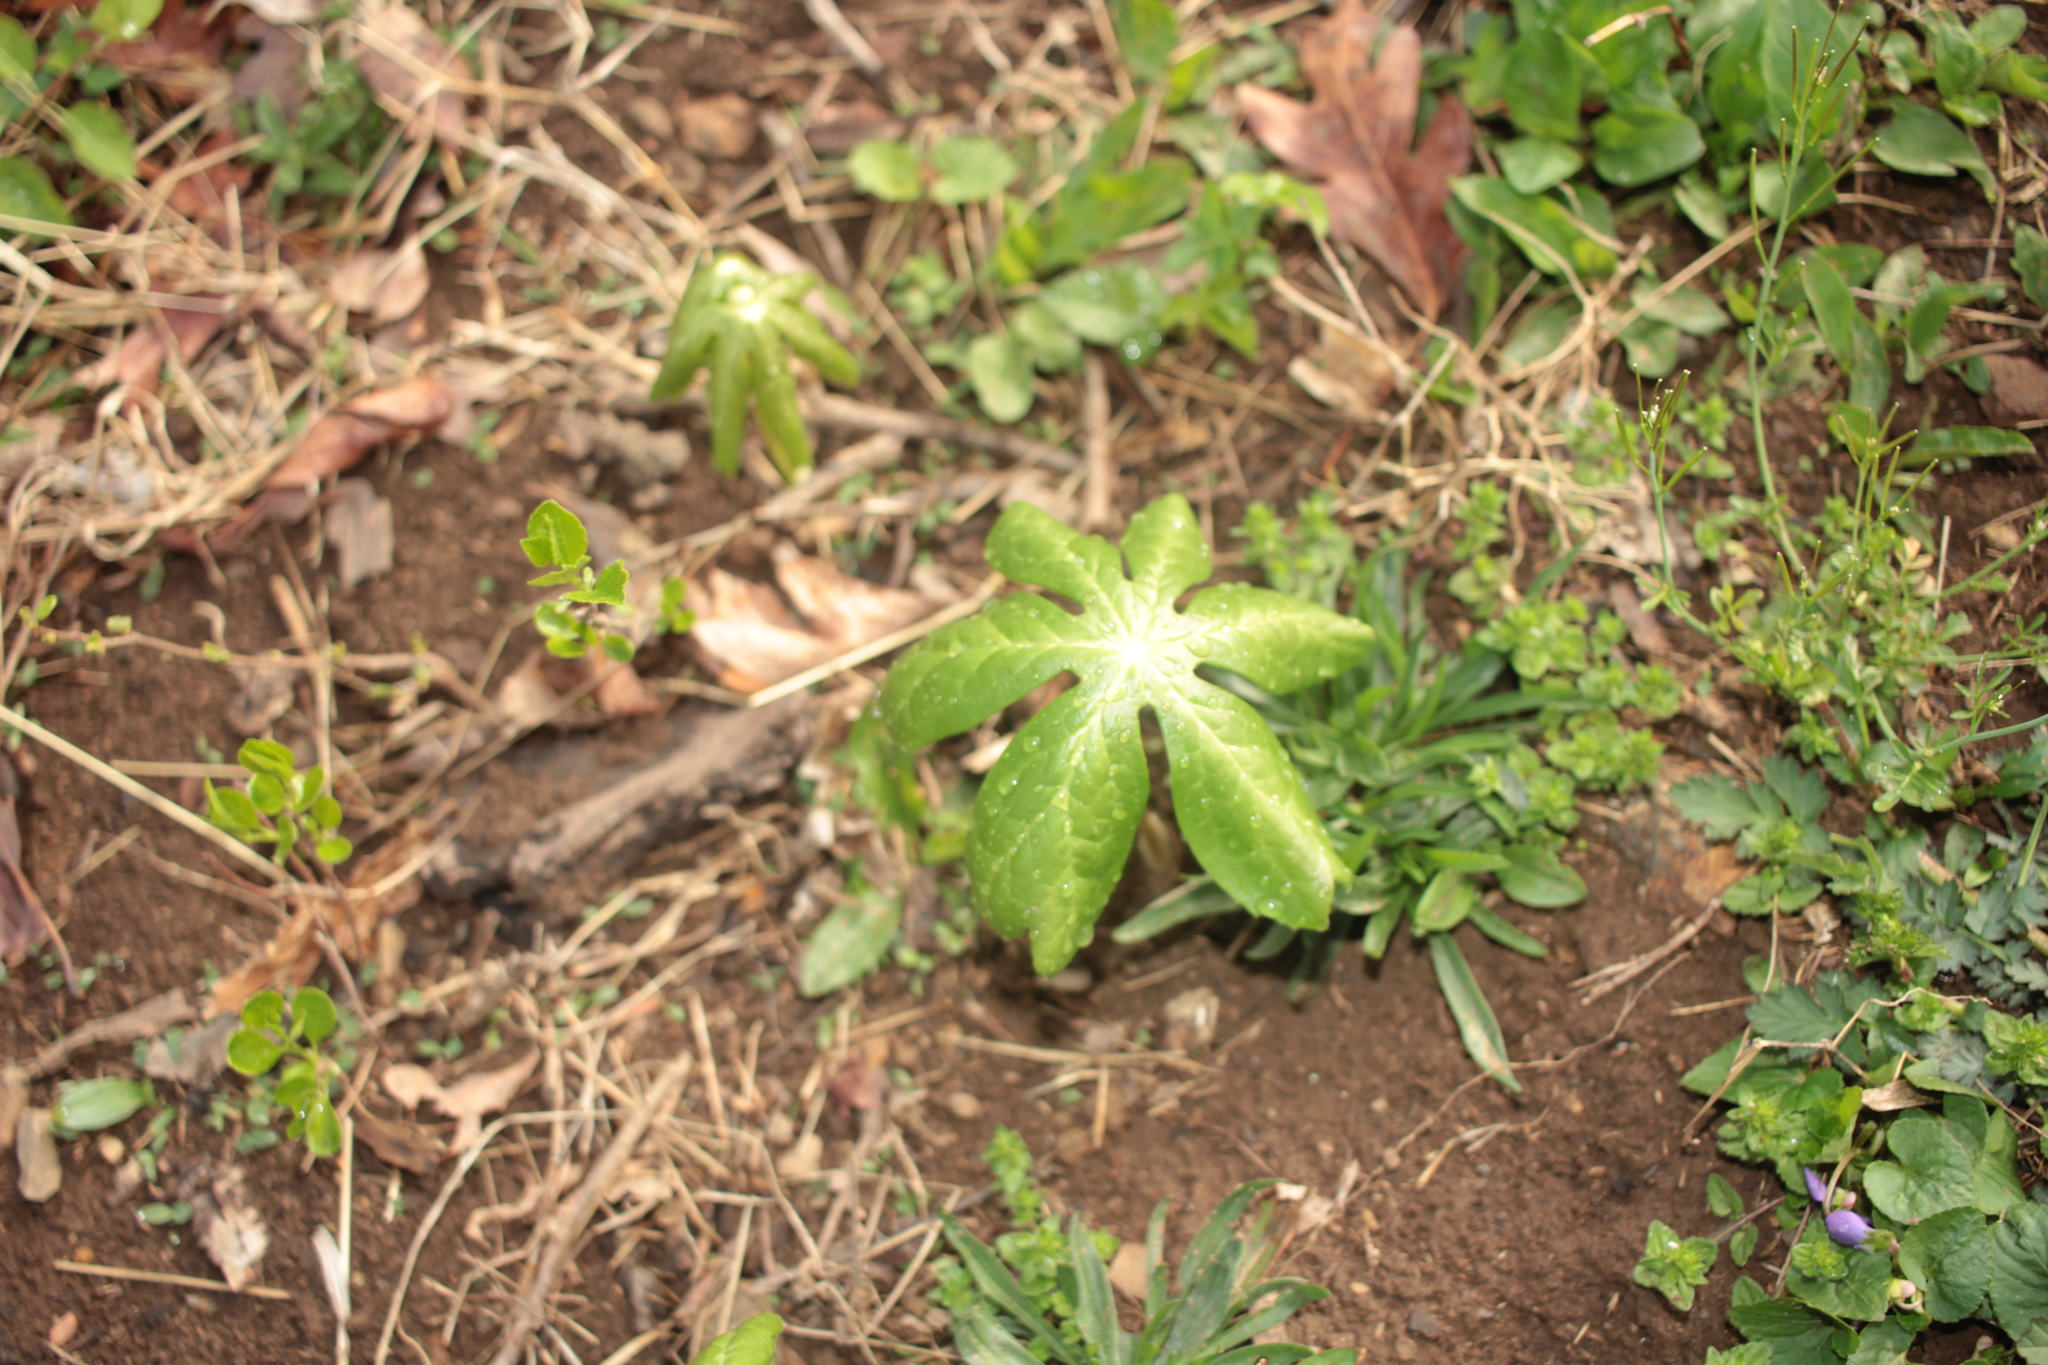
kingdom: Plantae
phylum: Tracheophyta
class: Magnoliopsida
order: Ranunculales
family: Berberidaceae
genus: Podophyllum
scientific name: Podophyllum peltatum
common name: Wild mandrake
